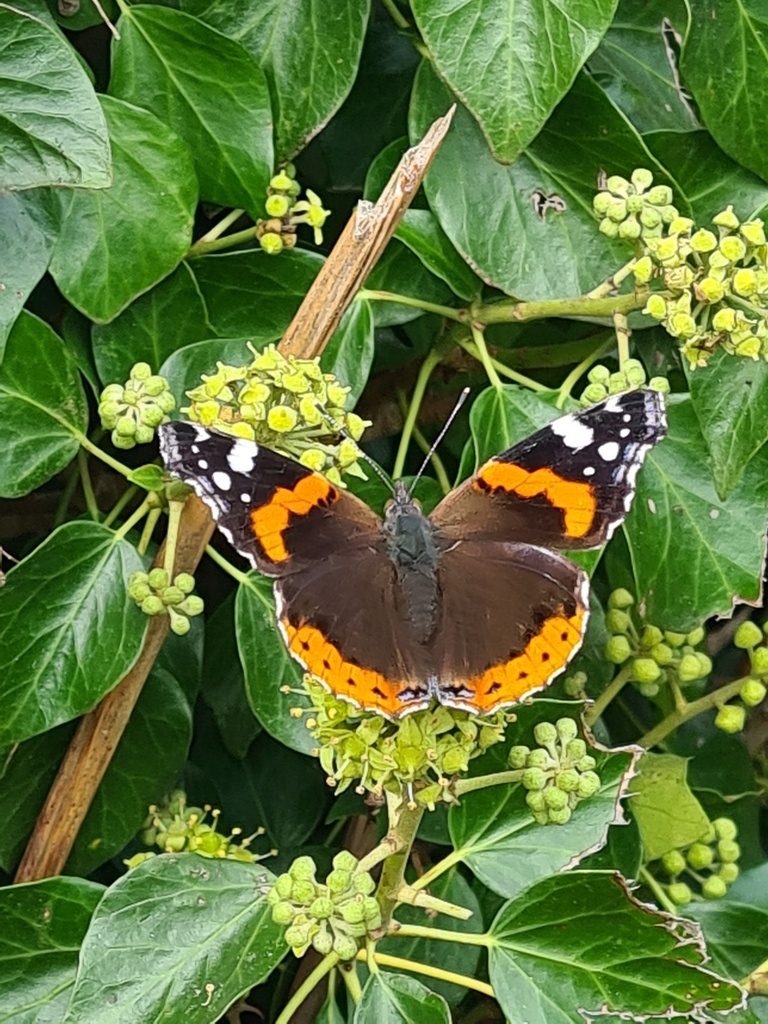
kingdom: Animalia
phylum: Arthropoda
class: Insecta
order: Lepidoptera
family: Nymphalidae
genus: Vanessa
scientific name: Vanessa atalanta
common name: Red admiral
